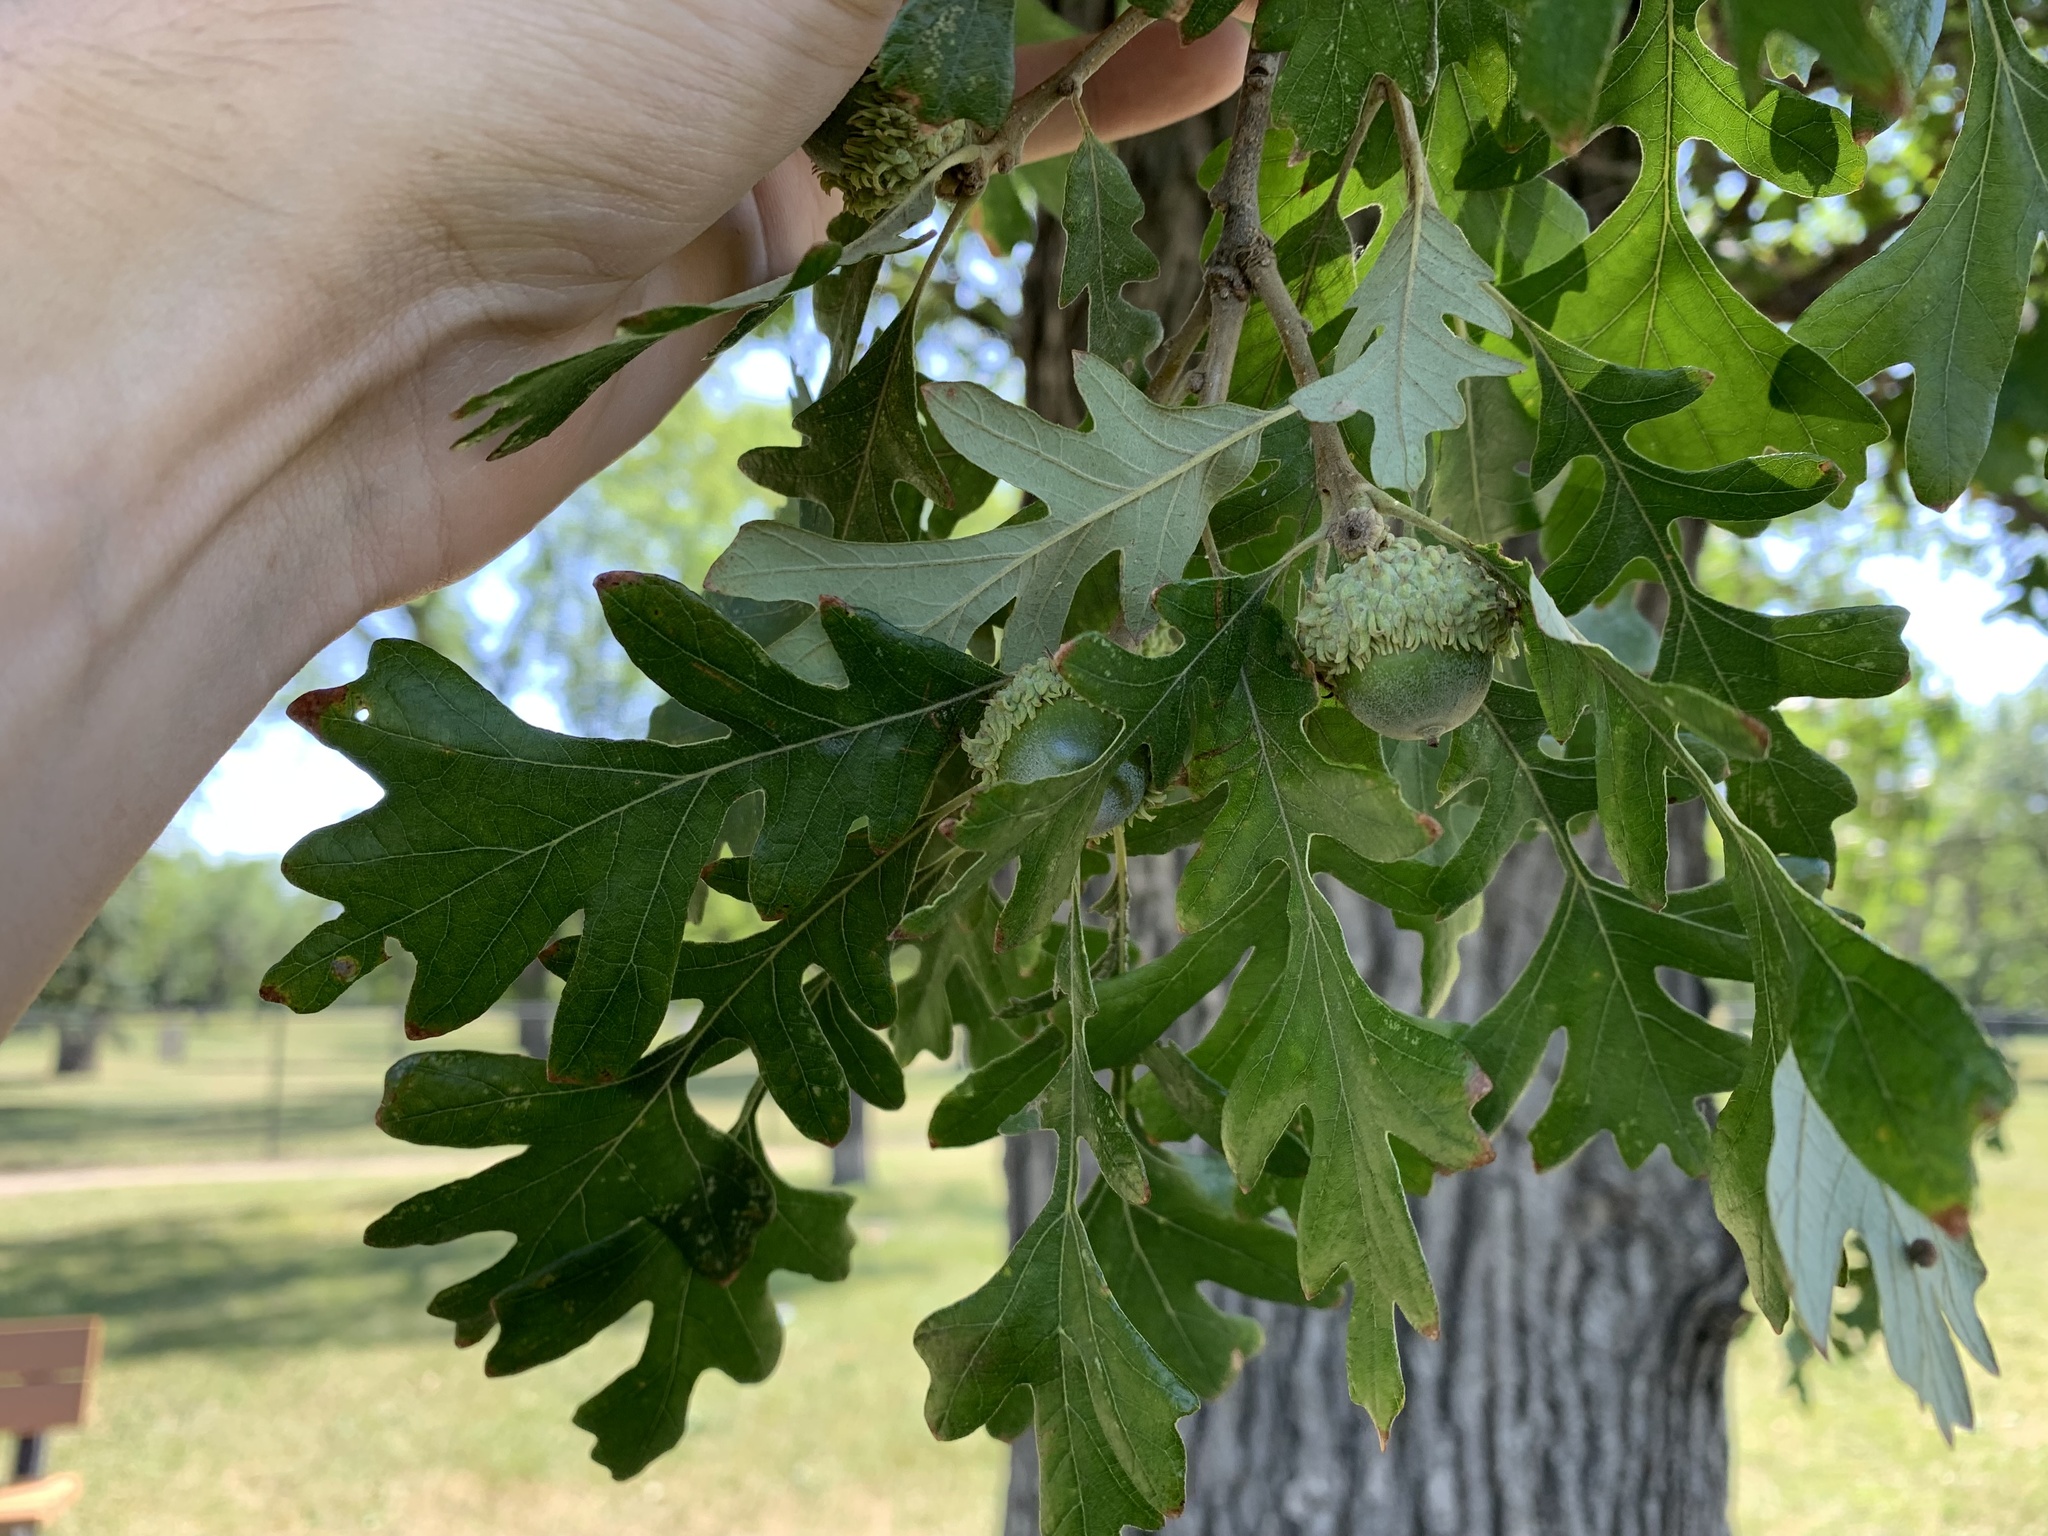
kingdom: Plantae
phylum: Tracheophyta
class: Magnoliopsida
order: Fagales
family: Fagaceae
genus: Quercus
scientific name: Quercus macrocarpa
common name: Bur oak
